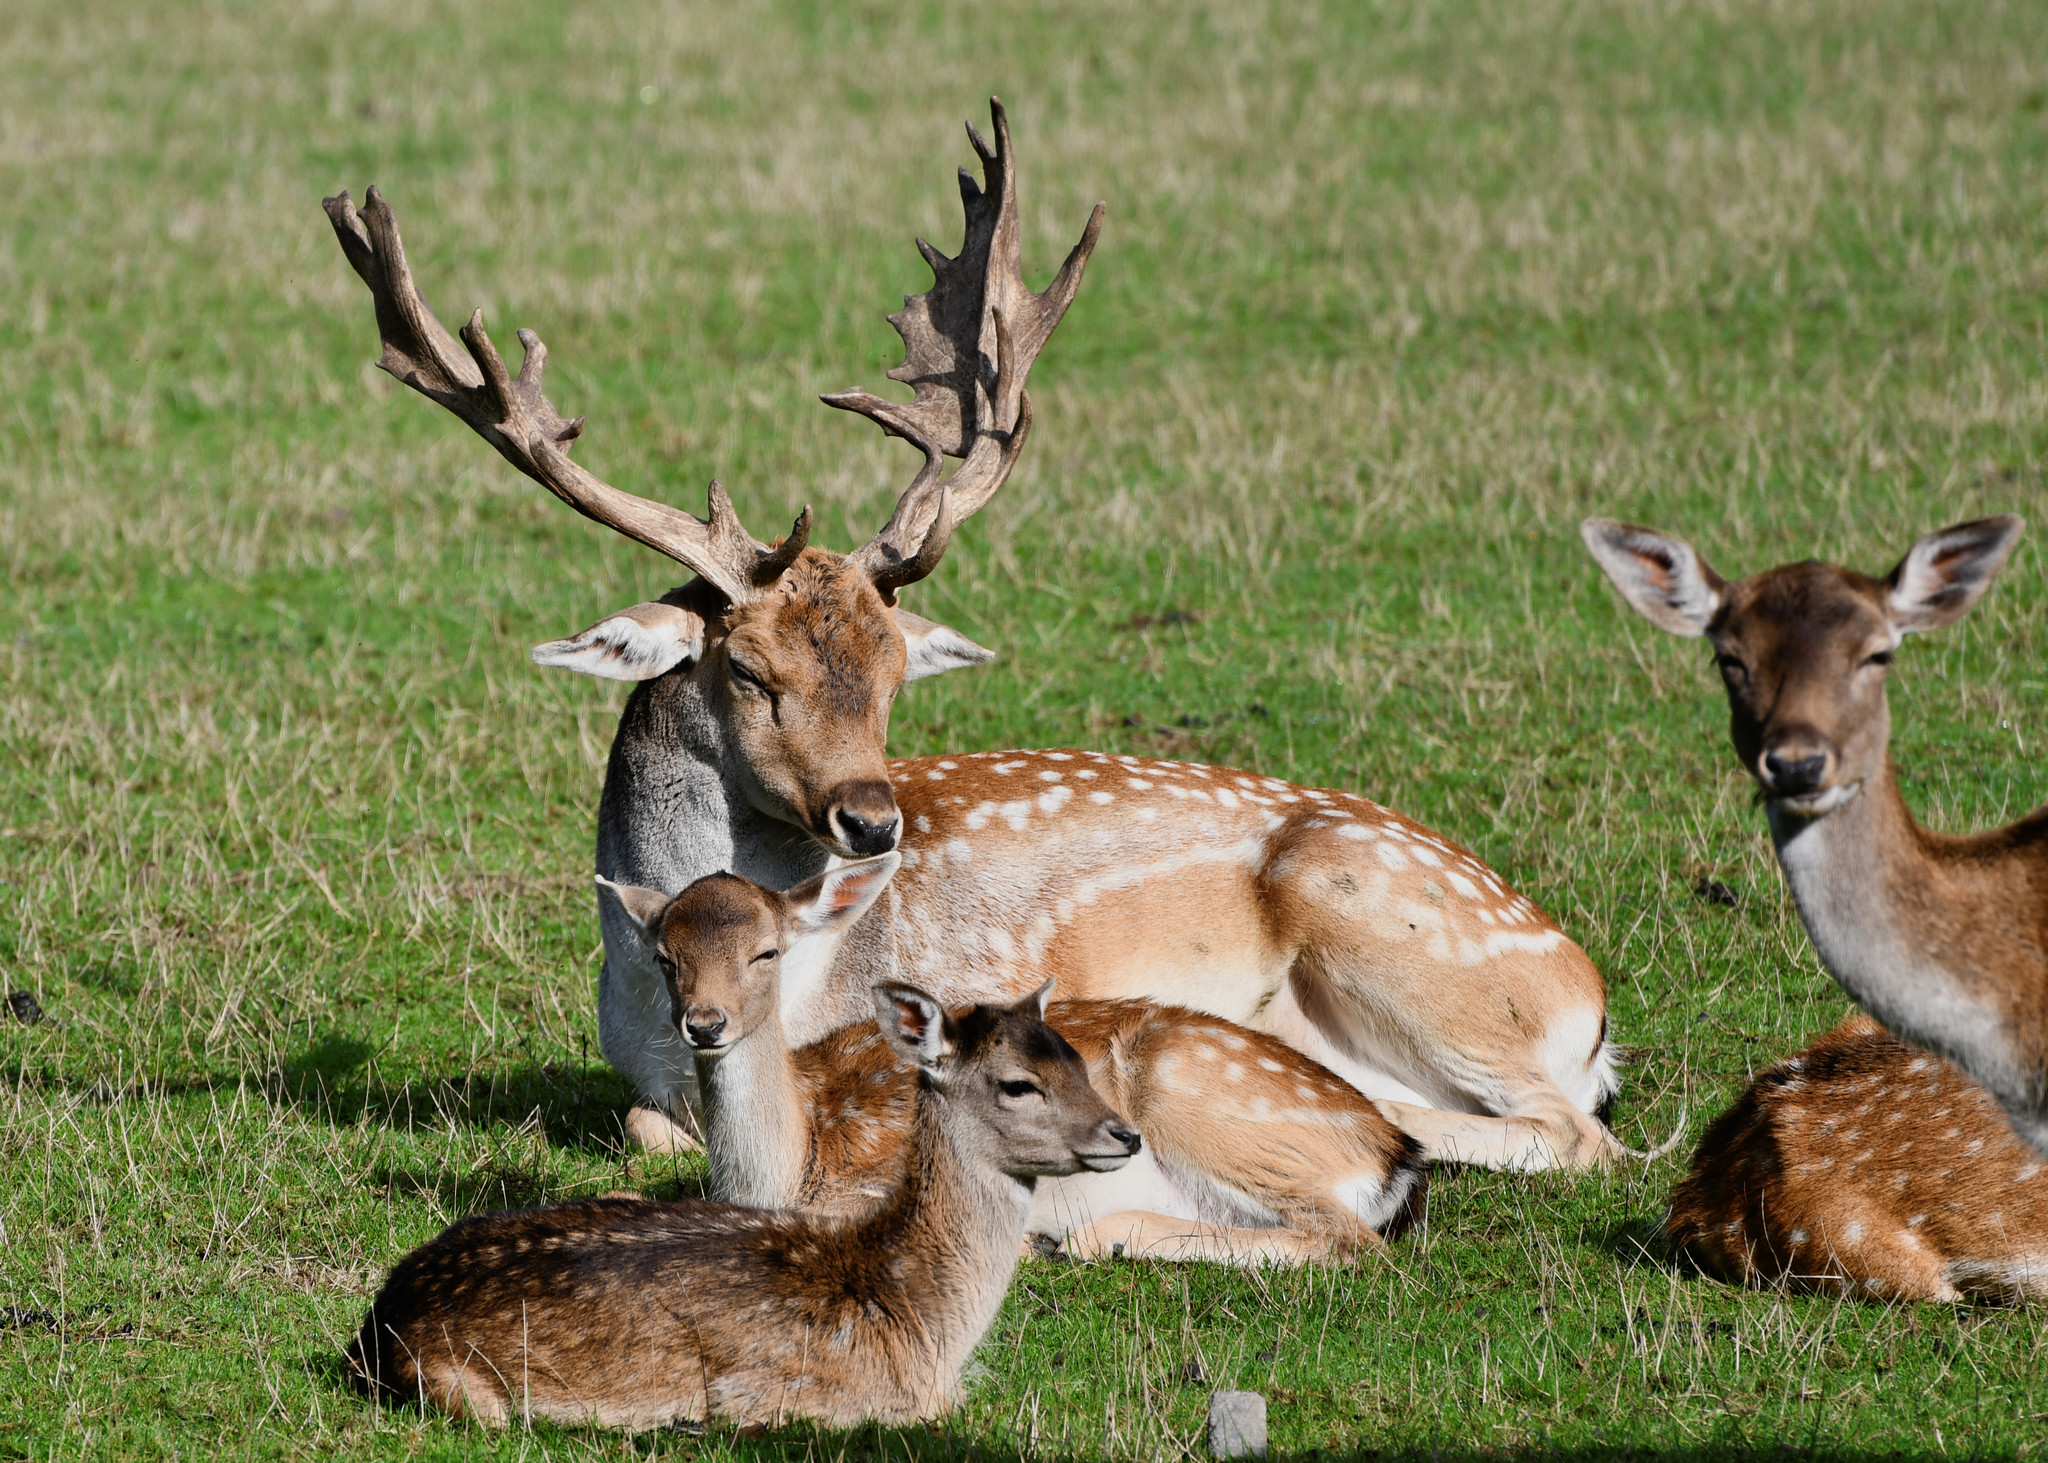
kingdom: Animalia
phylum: Chordata
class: Mammalia
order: Artiodactyla
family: Cervidae
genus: Dama
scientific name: Dama dama
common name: Fallow deer
